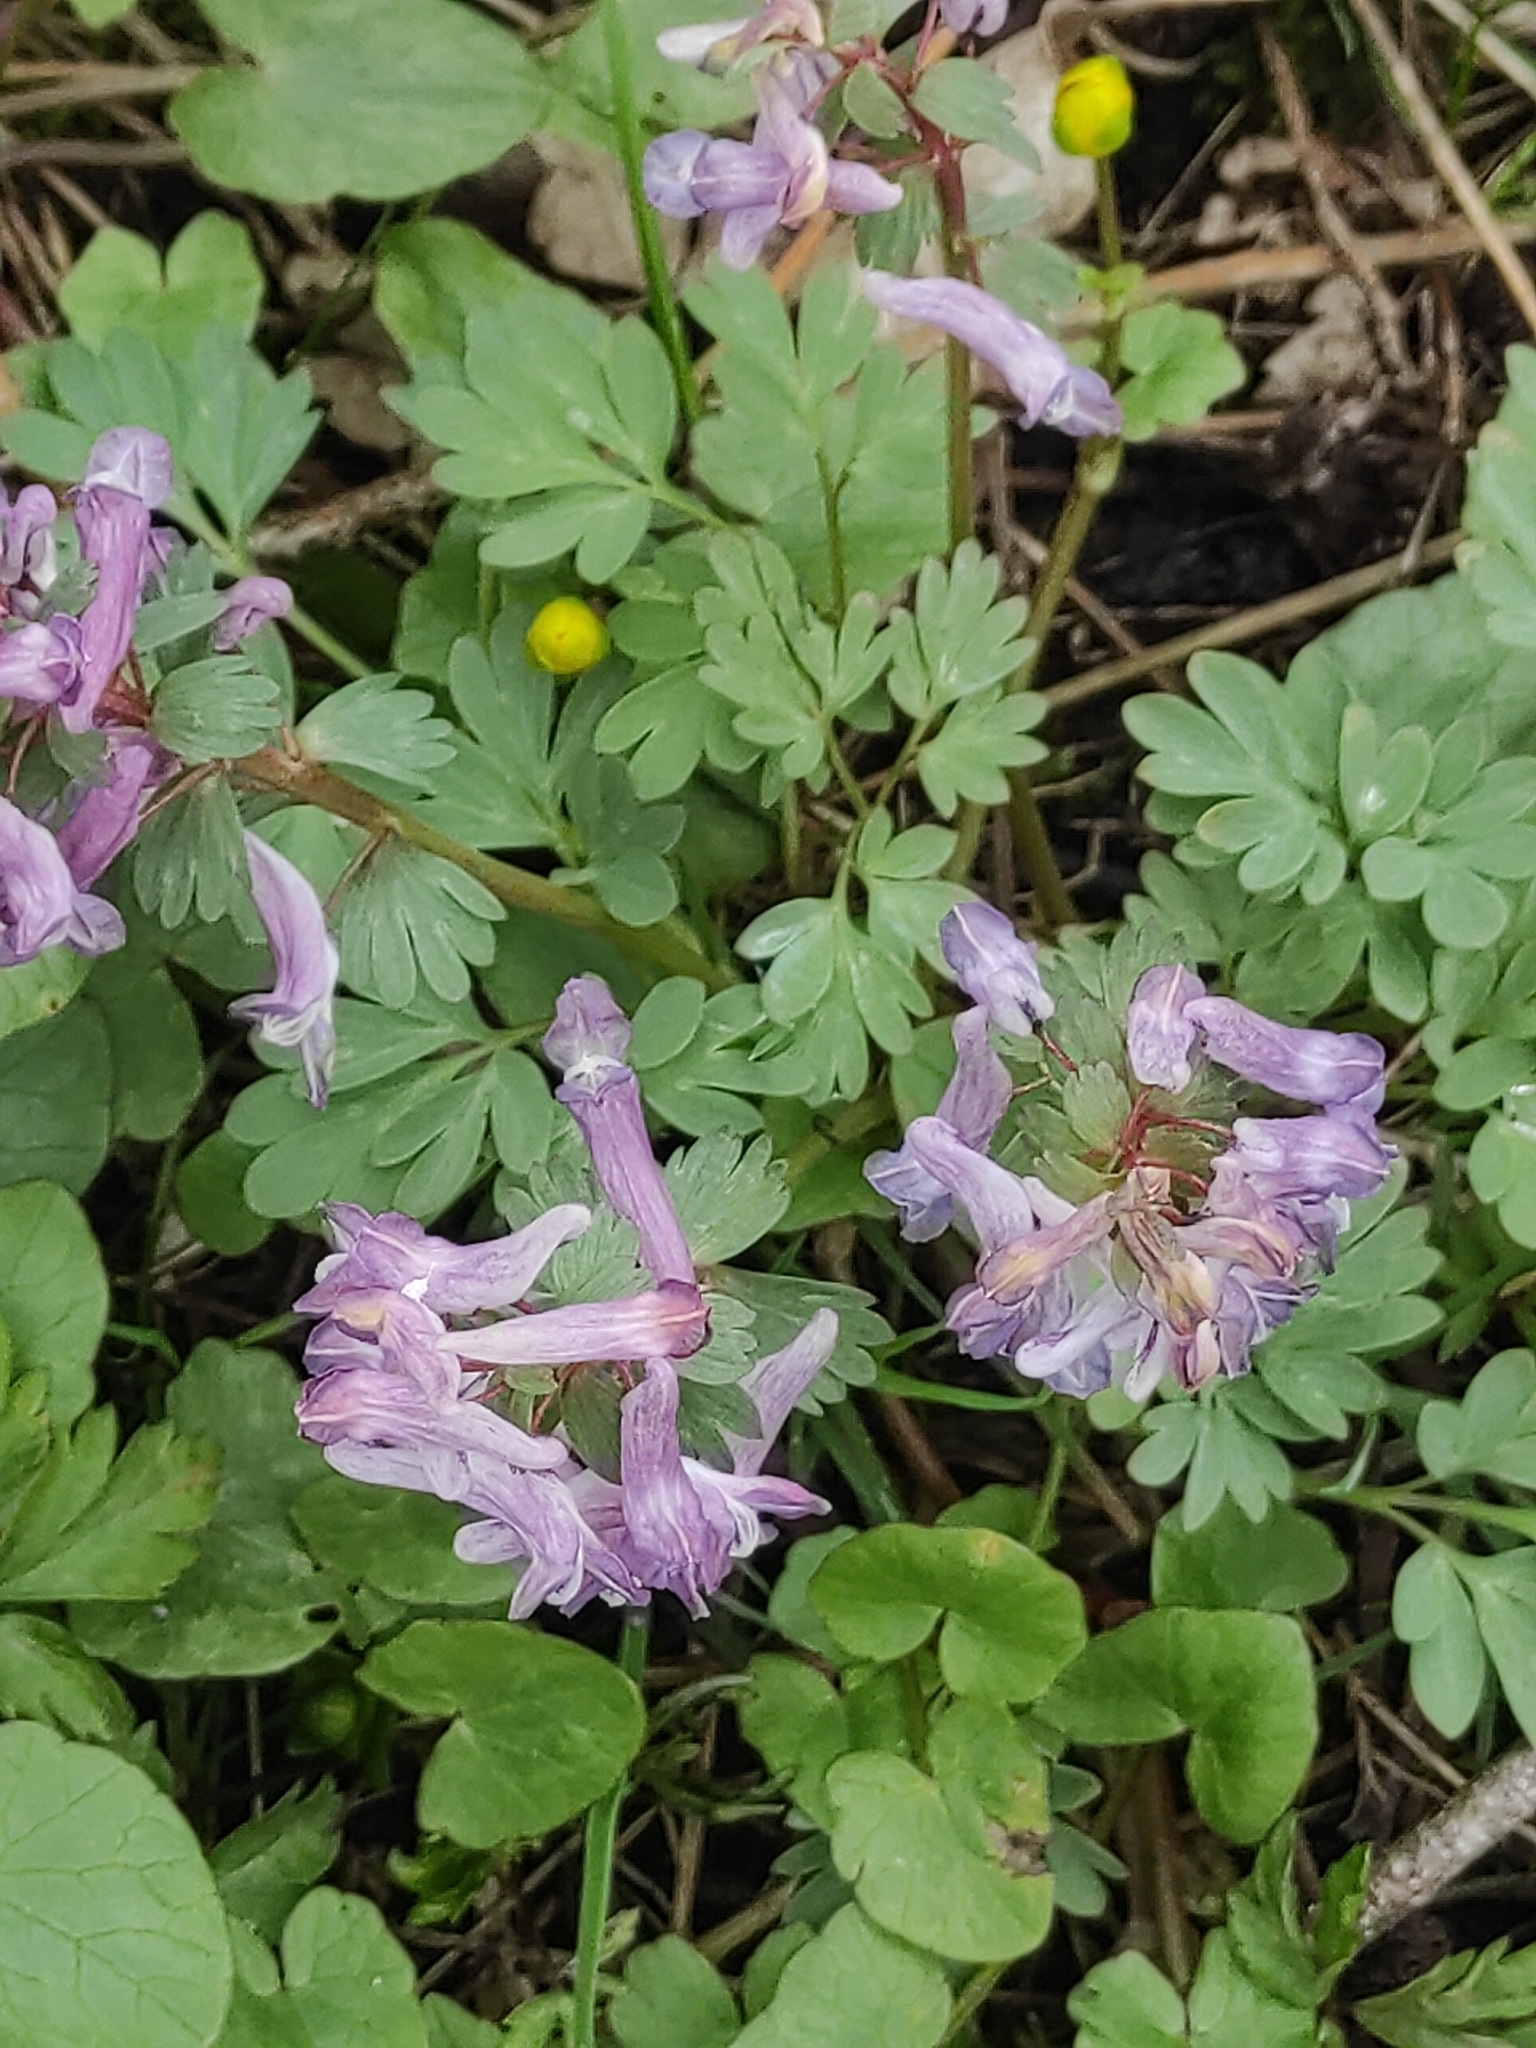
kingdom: Plantae
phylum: Tracheophyta
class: Magnoliopsida
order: Ranunculales
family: Papaveraceae
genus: Corydalis
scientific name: Corydalis solida
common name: Bird-in-a-bush
